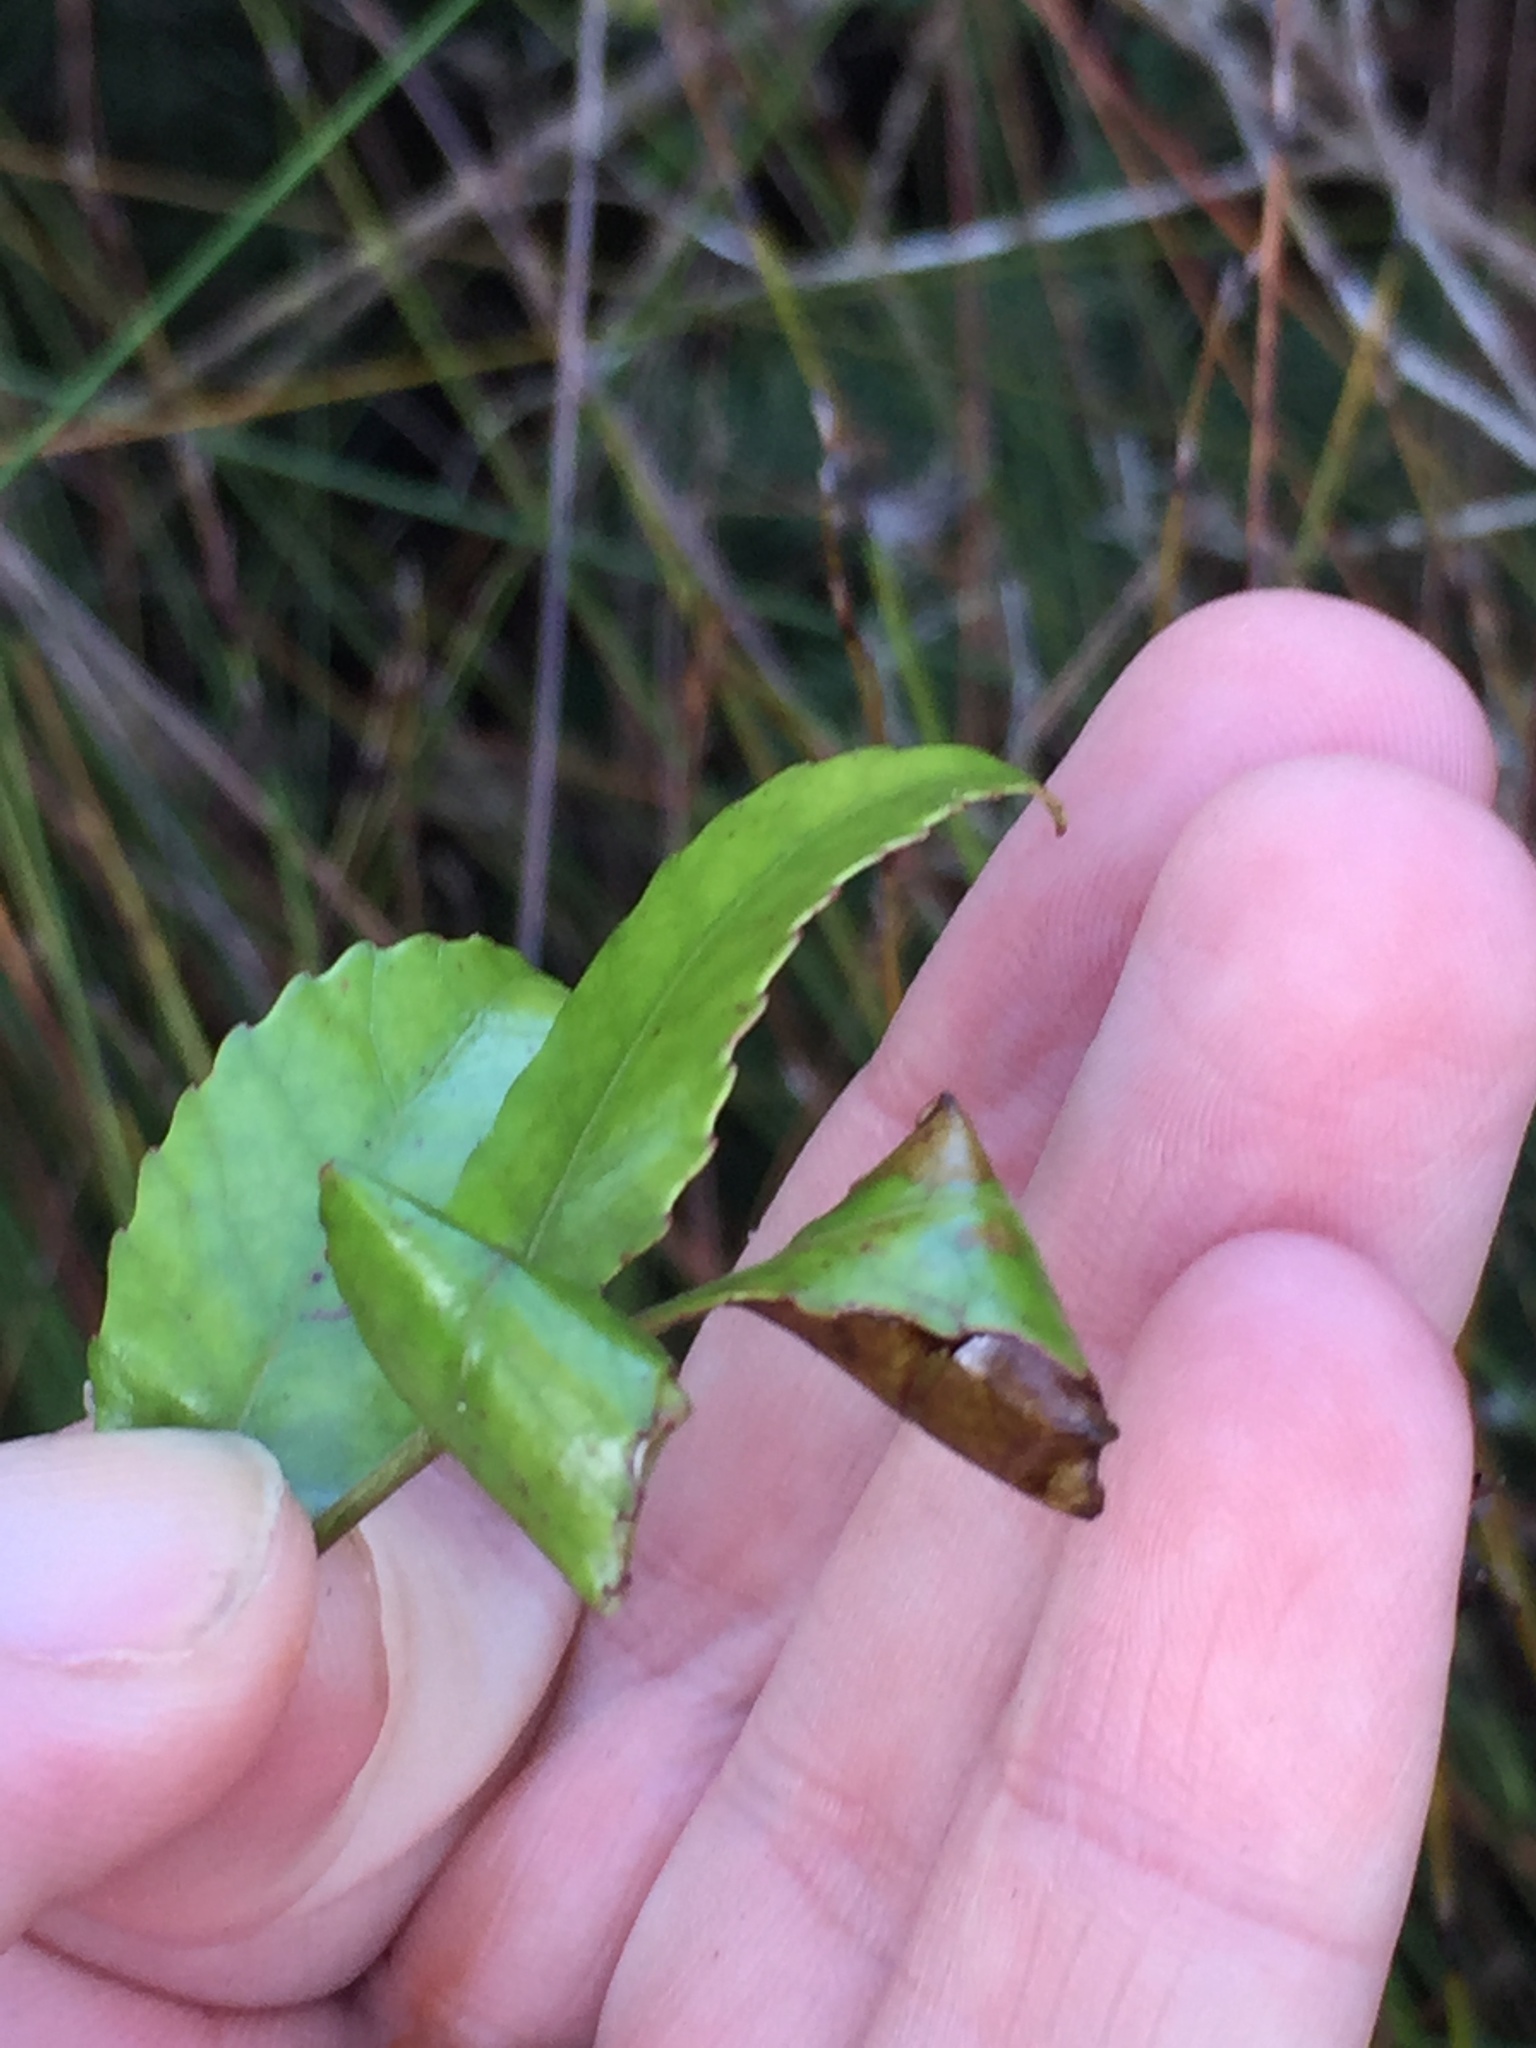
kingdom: Animalia
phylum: Arthropoda
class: Insecta
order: Lepidoptera
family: Gracillariidae
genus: Caloptilia
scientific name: Caloptilia chrysitis
